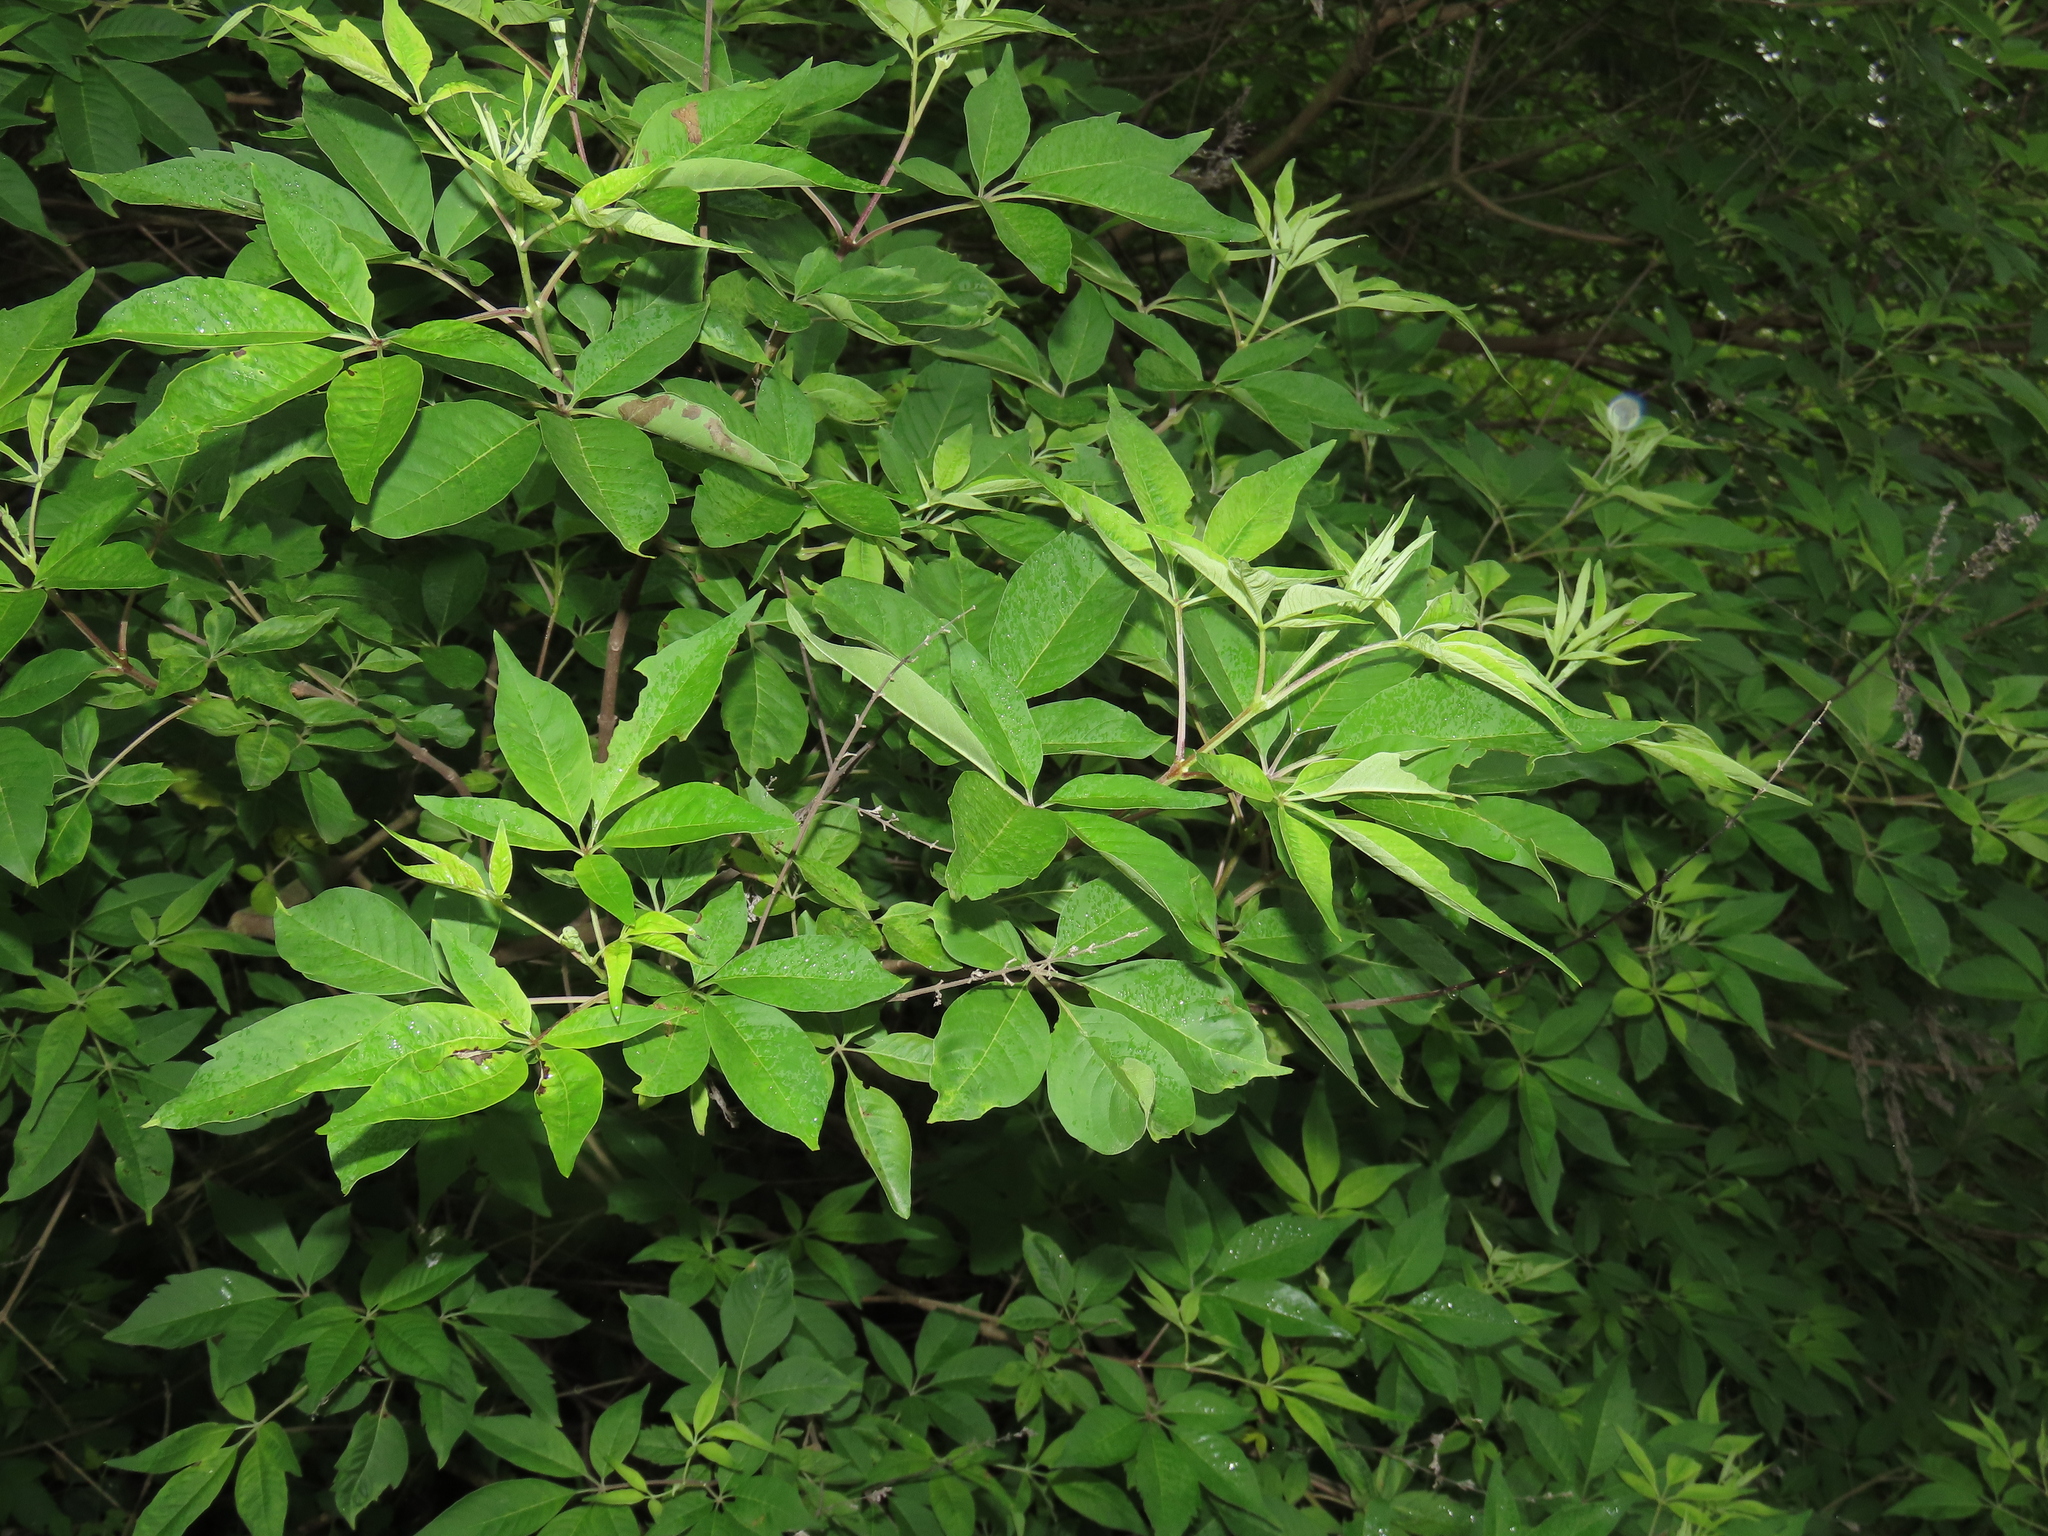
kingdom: Plantae
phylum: Tracheophyta
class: Magnoliopsida
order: Lamiales
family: Lamiaceae
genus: Vitex
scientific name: Vitex negundo
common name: Chinese chastetree
